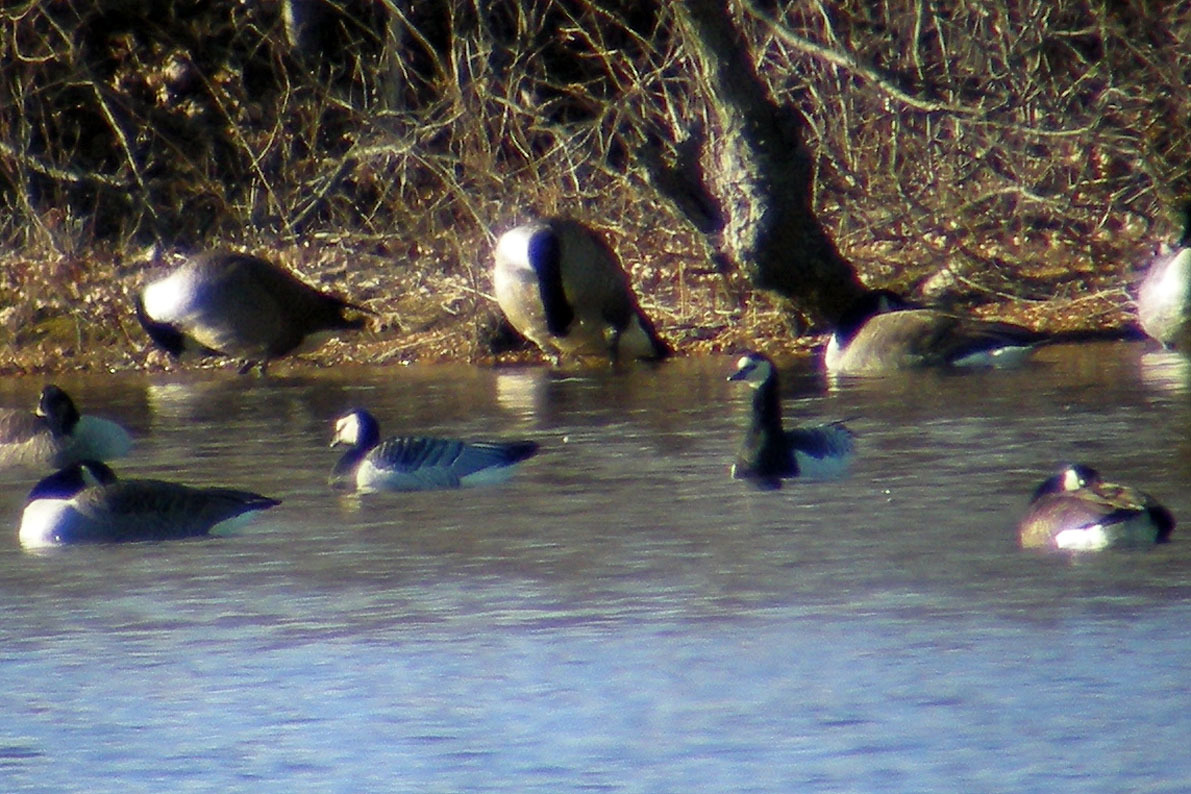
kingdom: Animalia
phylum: Chordata
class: Aves
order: Anseriformes
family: Anatidae
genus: Branta
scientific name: Branta leucopsis
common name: Barnacle goose
